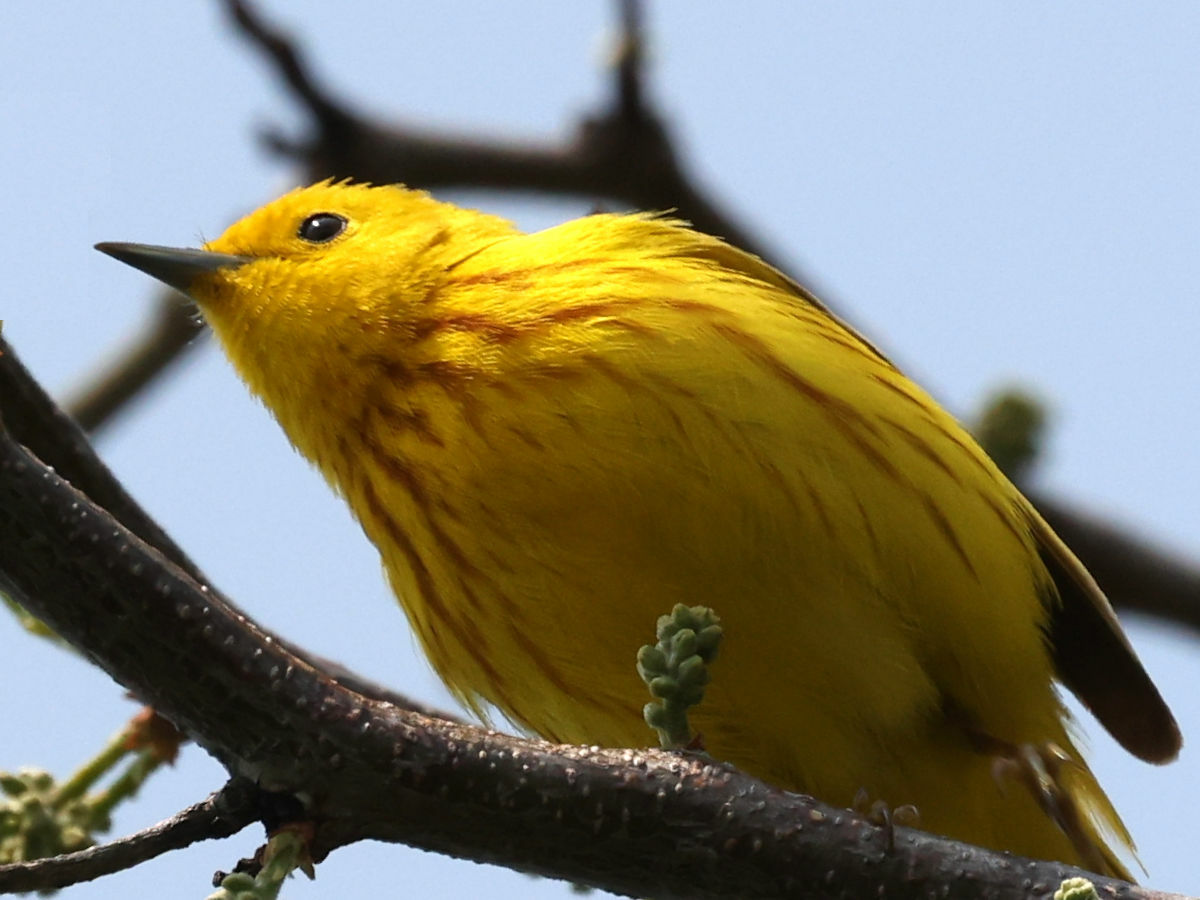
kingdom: Animalia
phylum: Chordata
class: Aves
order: Passeriformes
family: Parulidae
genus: Setophaga
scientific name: Setophaga petechia
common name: Yellow warbler
